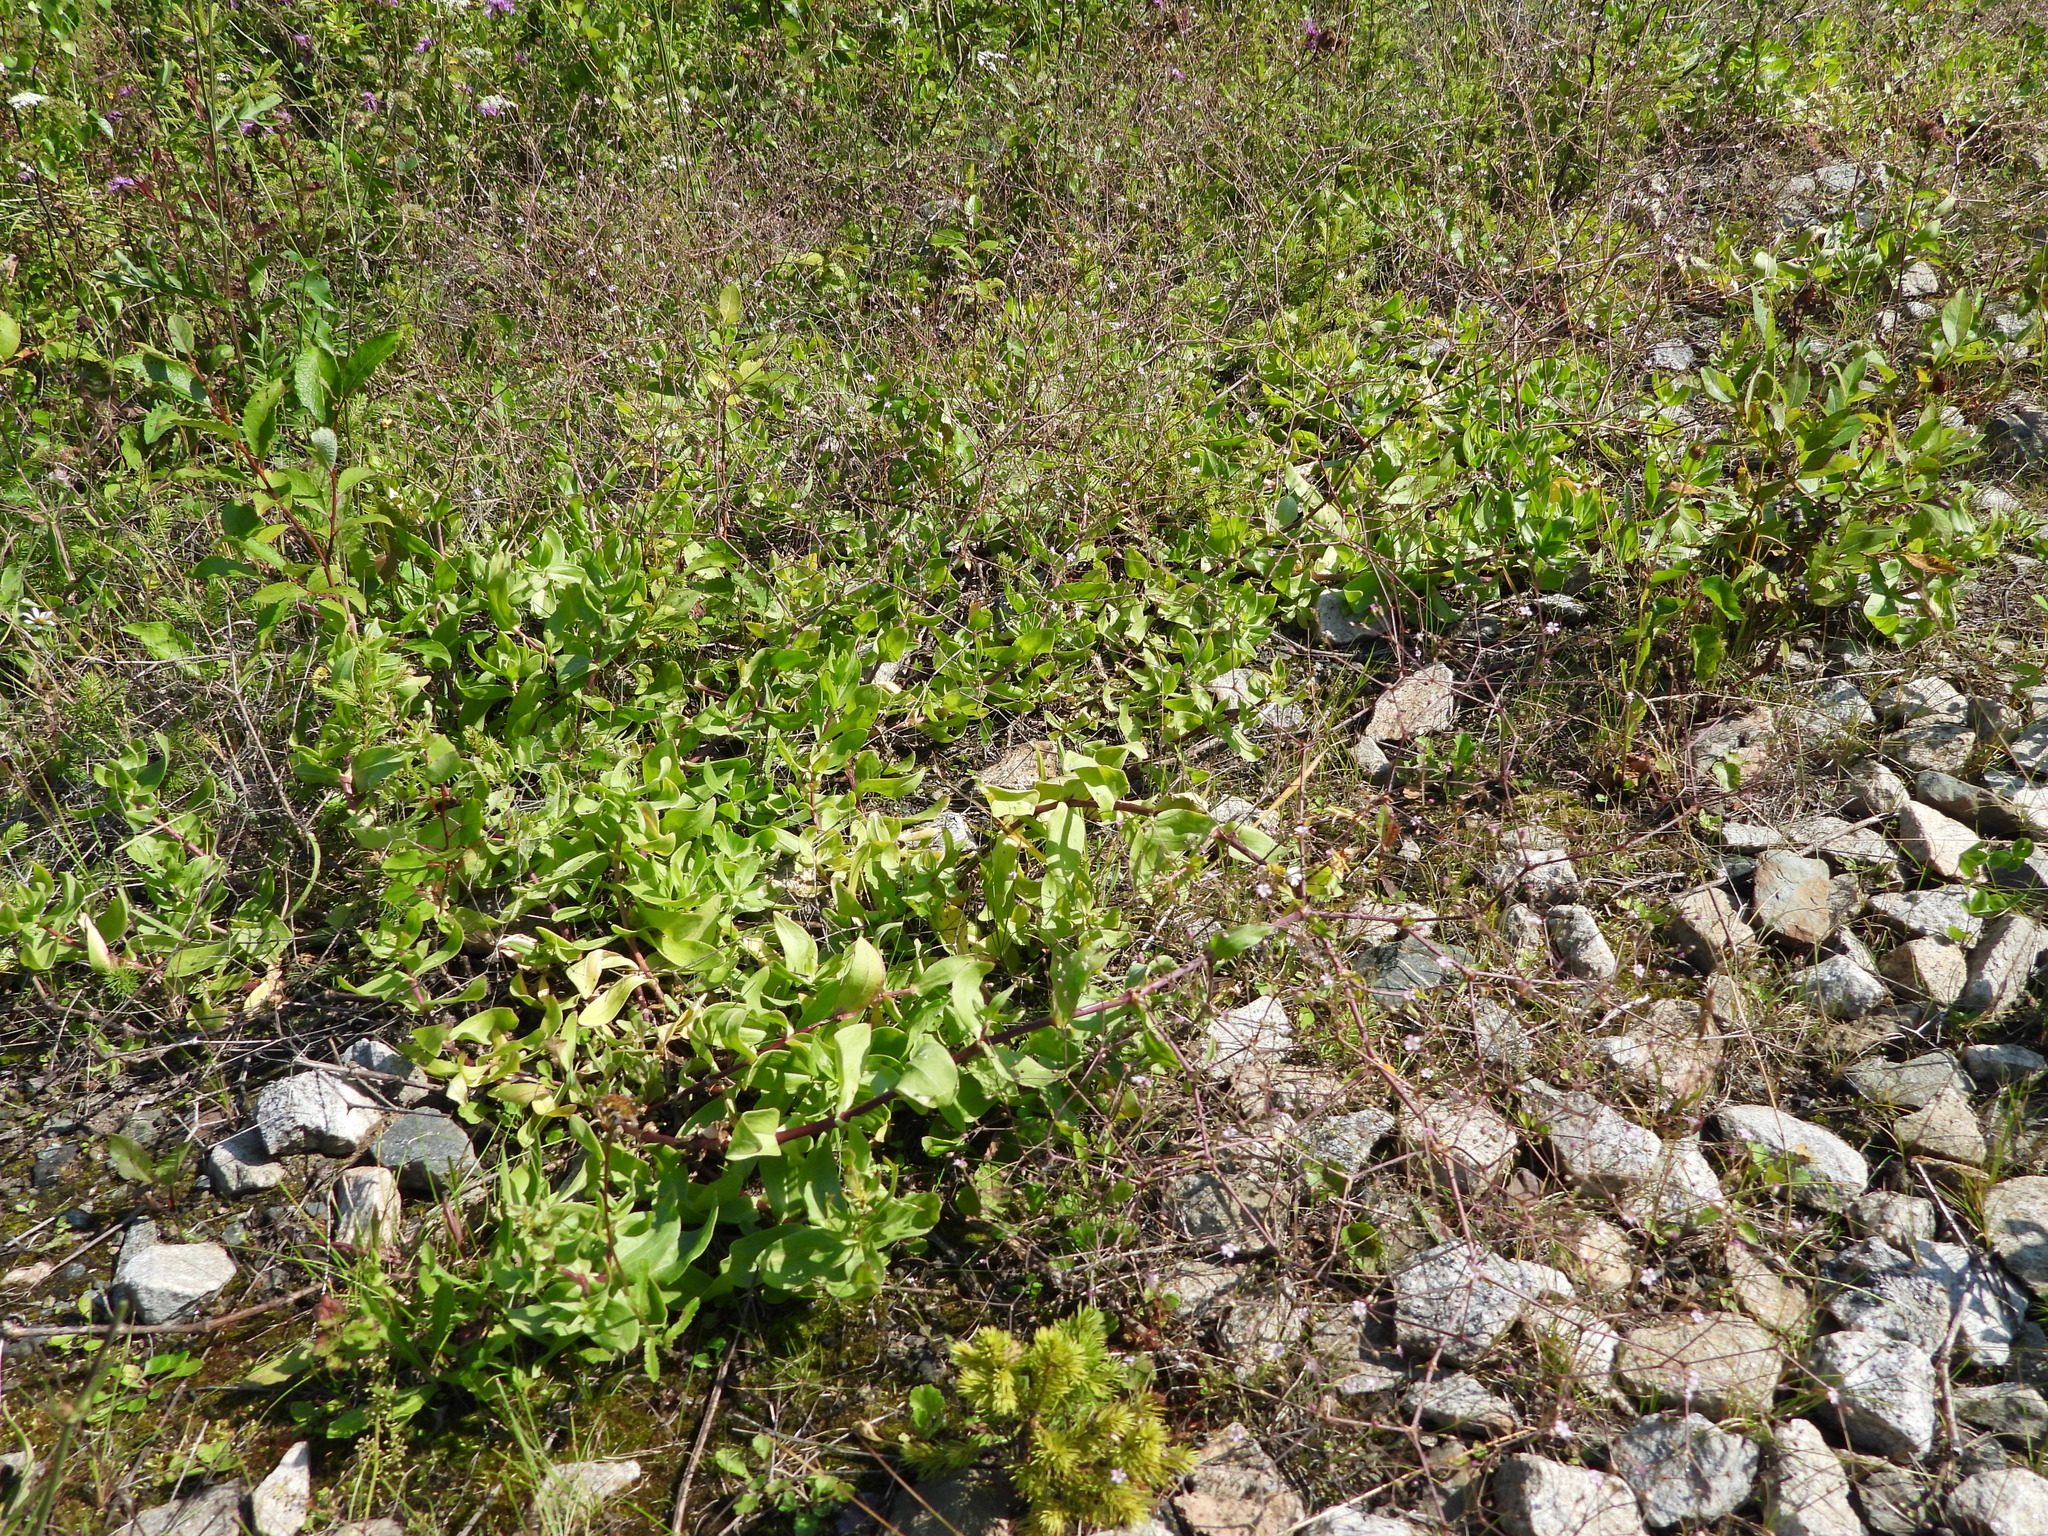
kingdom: Plantae
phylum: Tracheophyta
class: Magnoliopsida
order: Caryophyllales
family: Caryophyllaceae
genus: Gypsophila
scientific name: Gypsophila perfoliata
